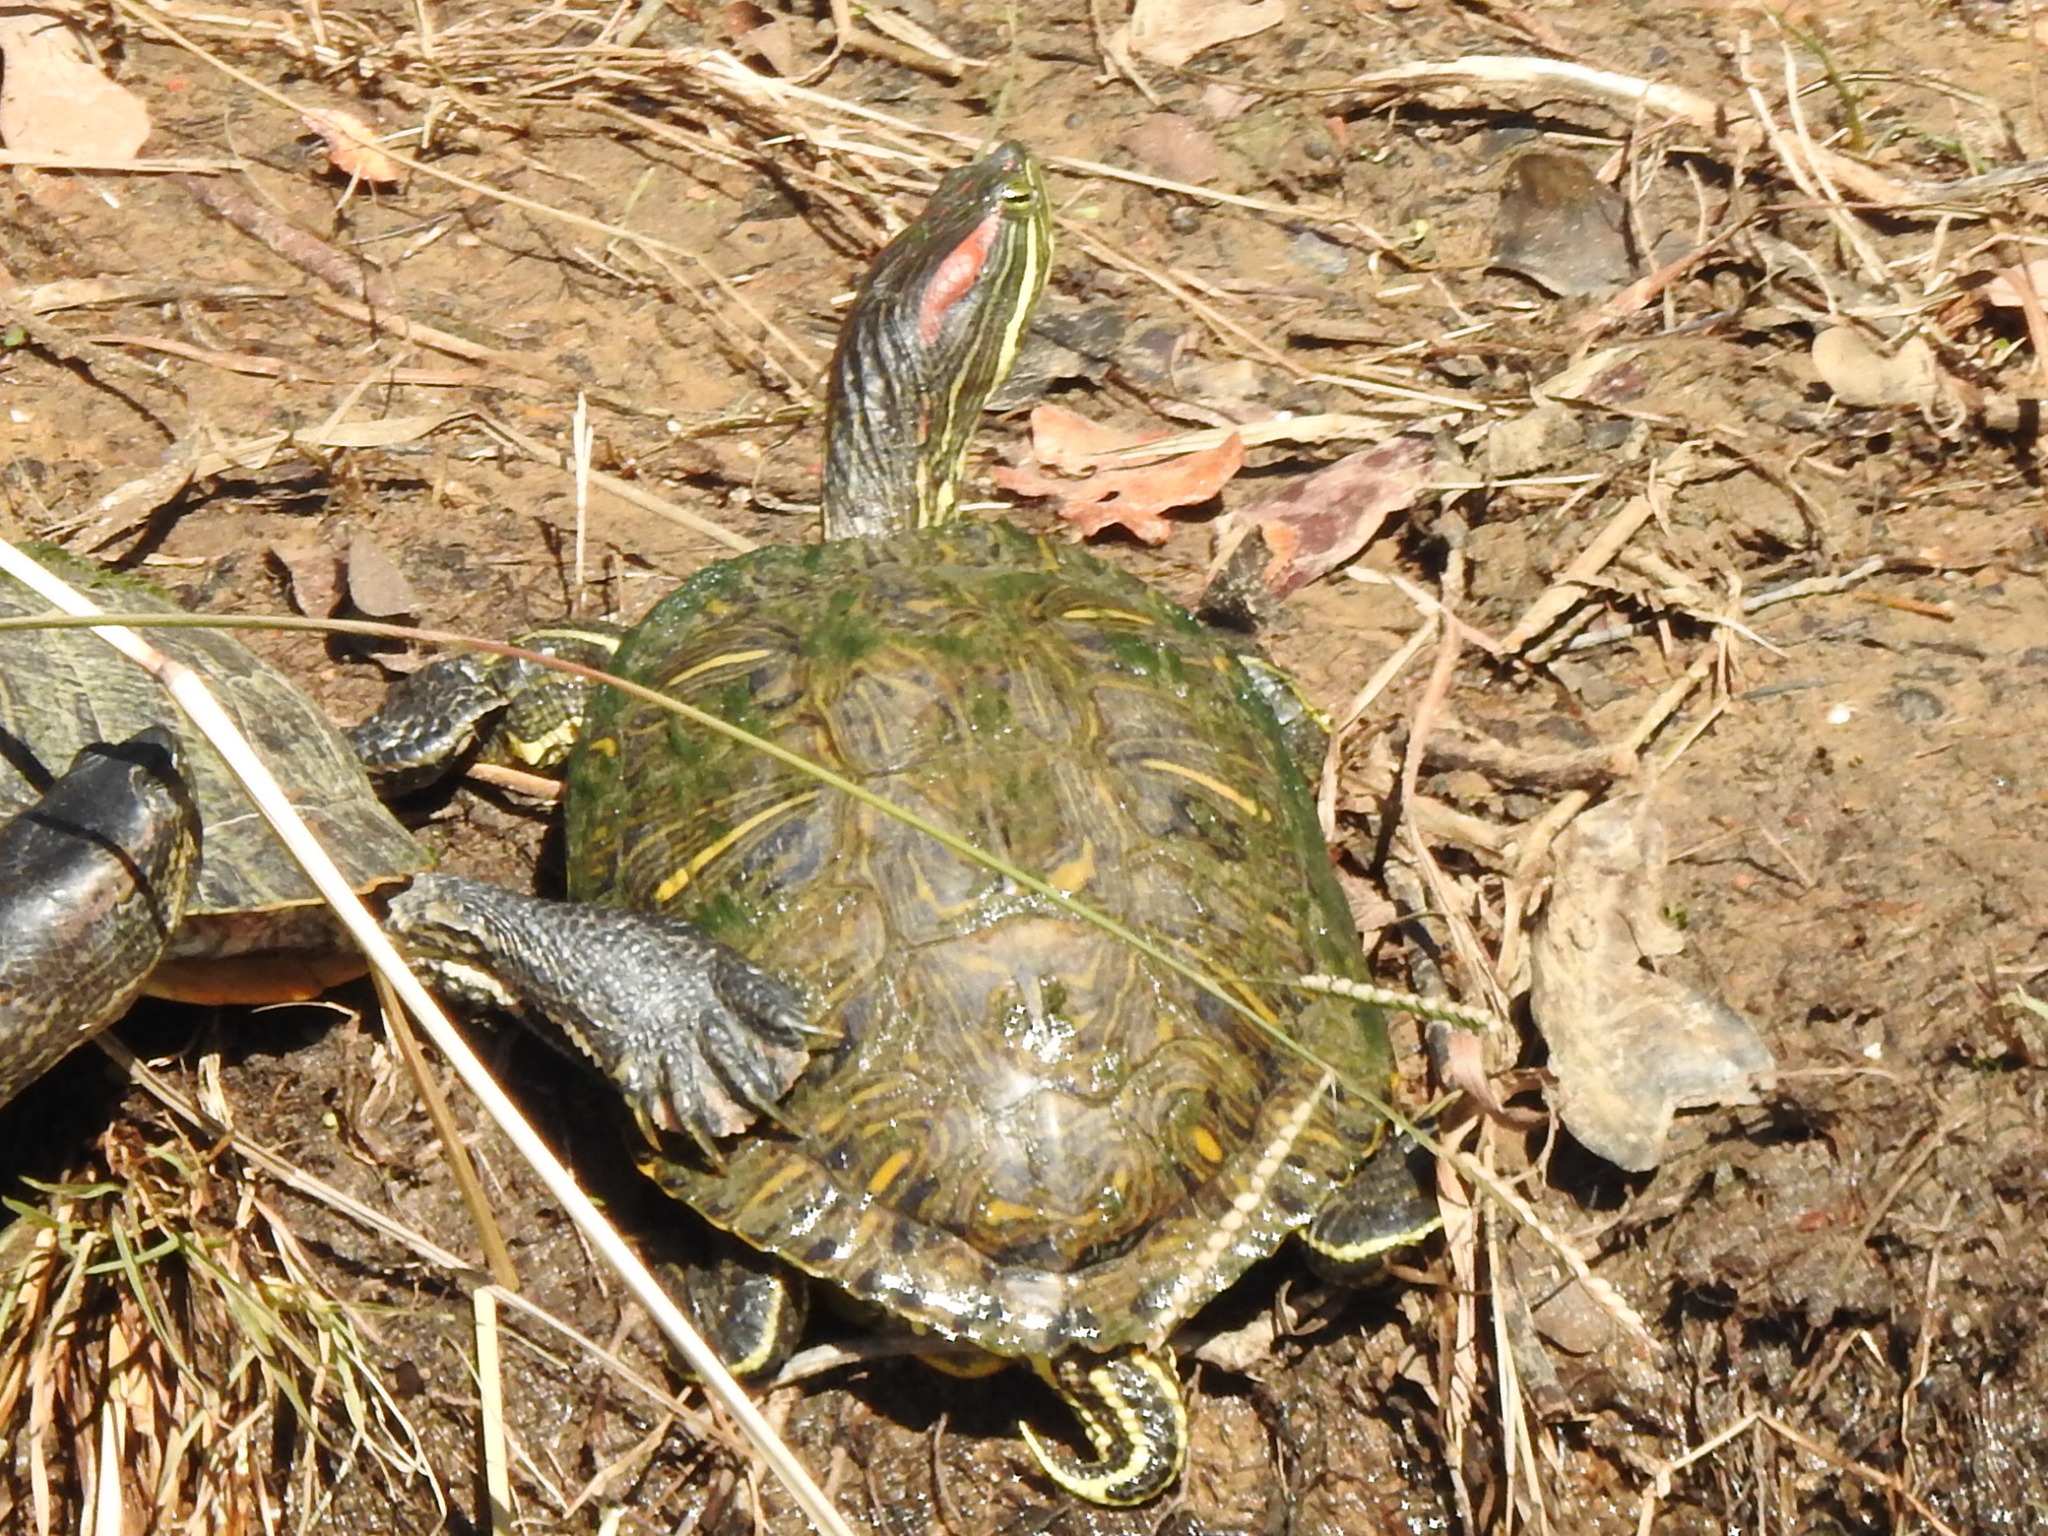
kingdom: Animalia
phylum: Chordata
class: Testudines
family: Emydidae
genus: Trachemys
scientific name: Trachemys scripta
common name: Slider
